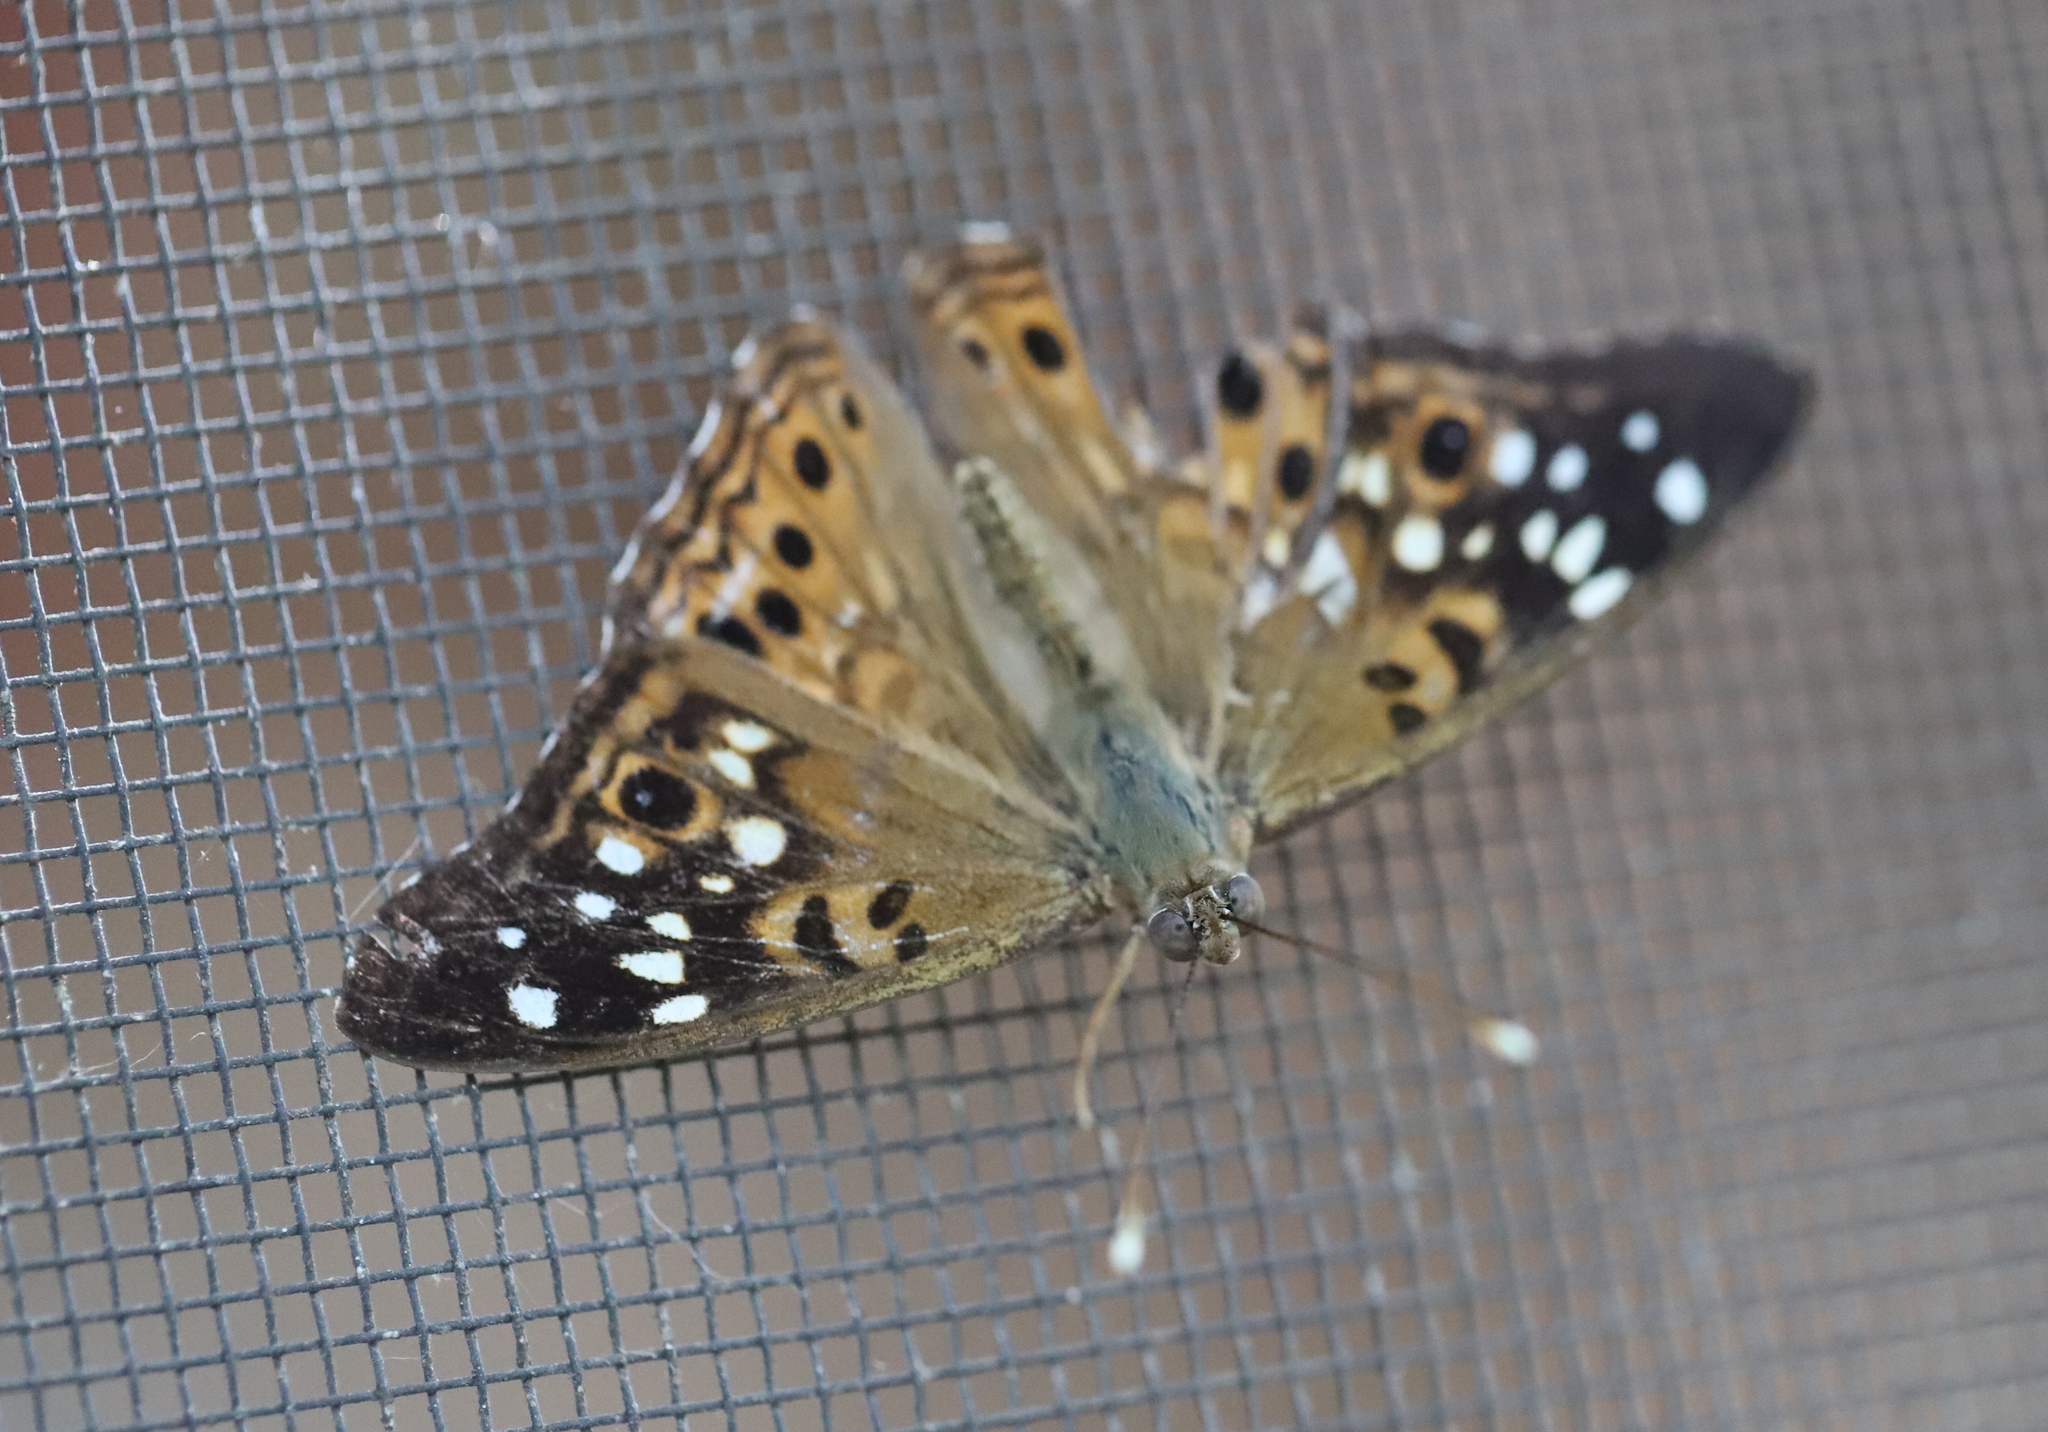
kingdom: Animalia
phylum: Arthropoda
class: Insecta
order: Lepidoptera
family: Nymphalidae
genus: Asterocampa
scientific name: Asterocampa celtis
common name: Hackberry emperor
